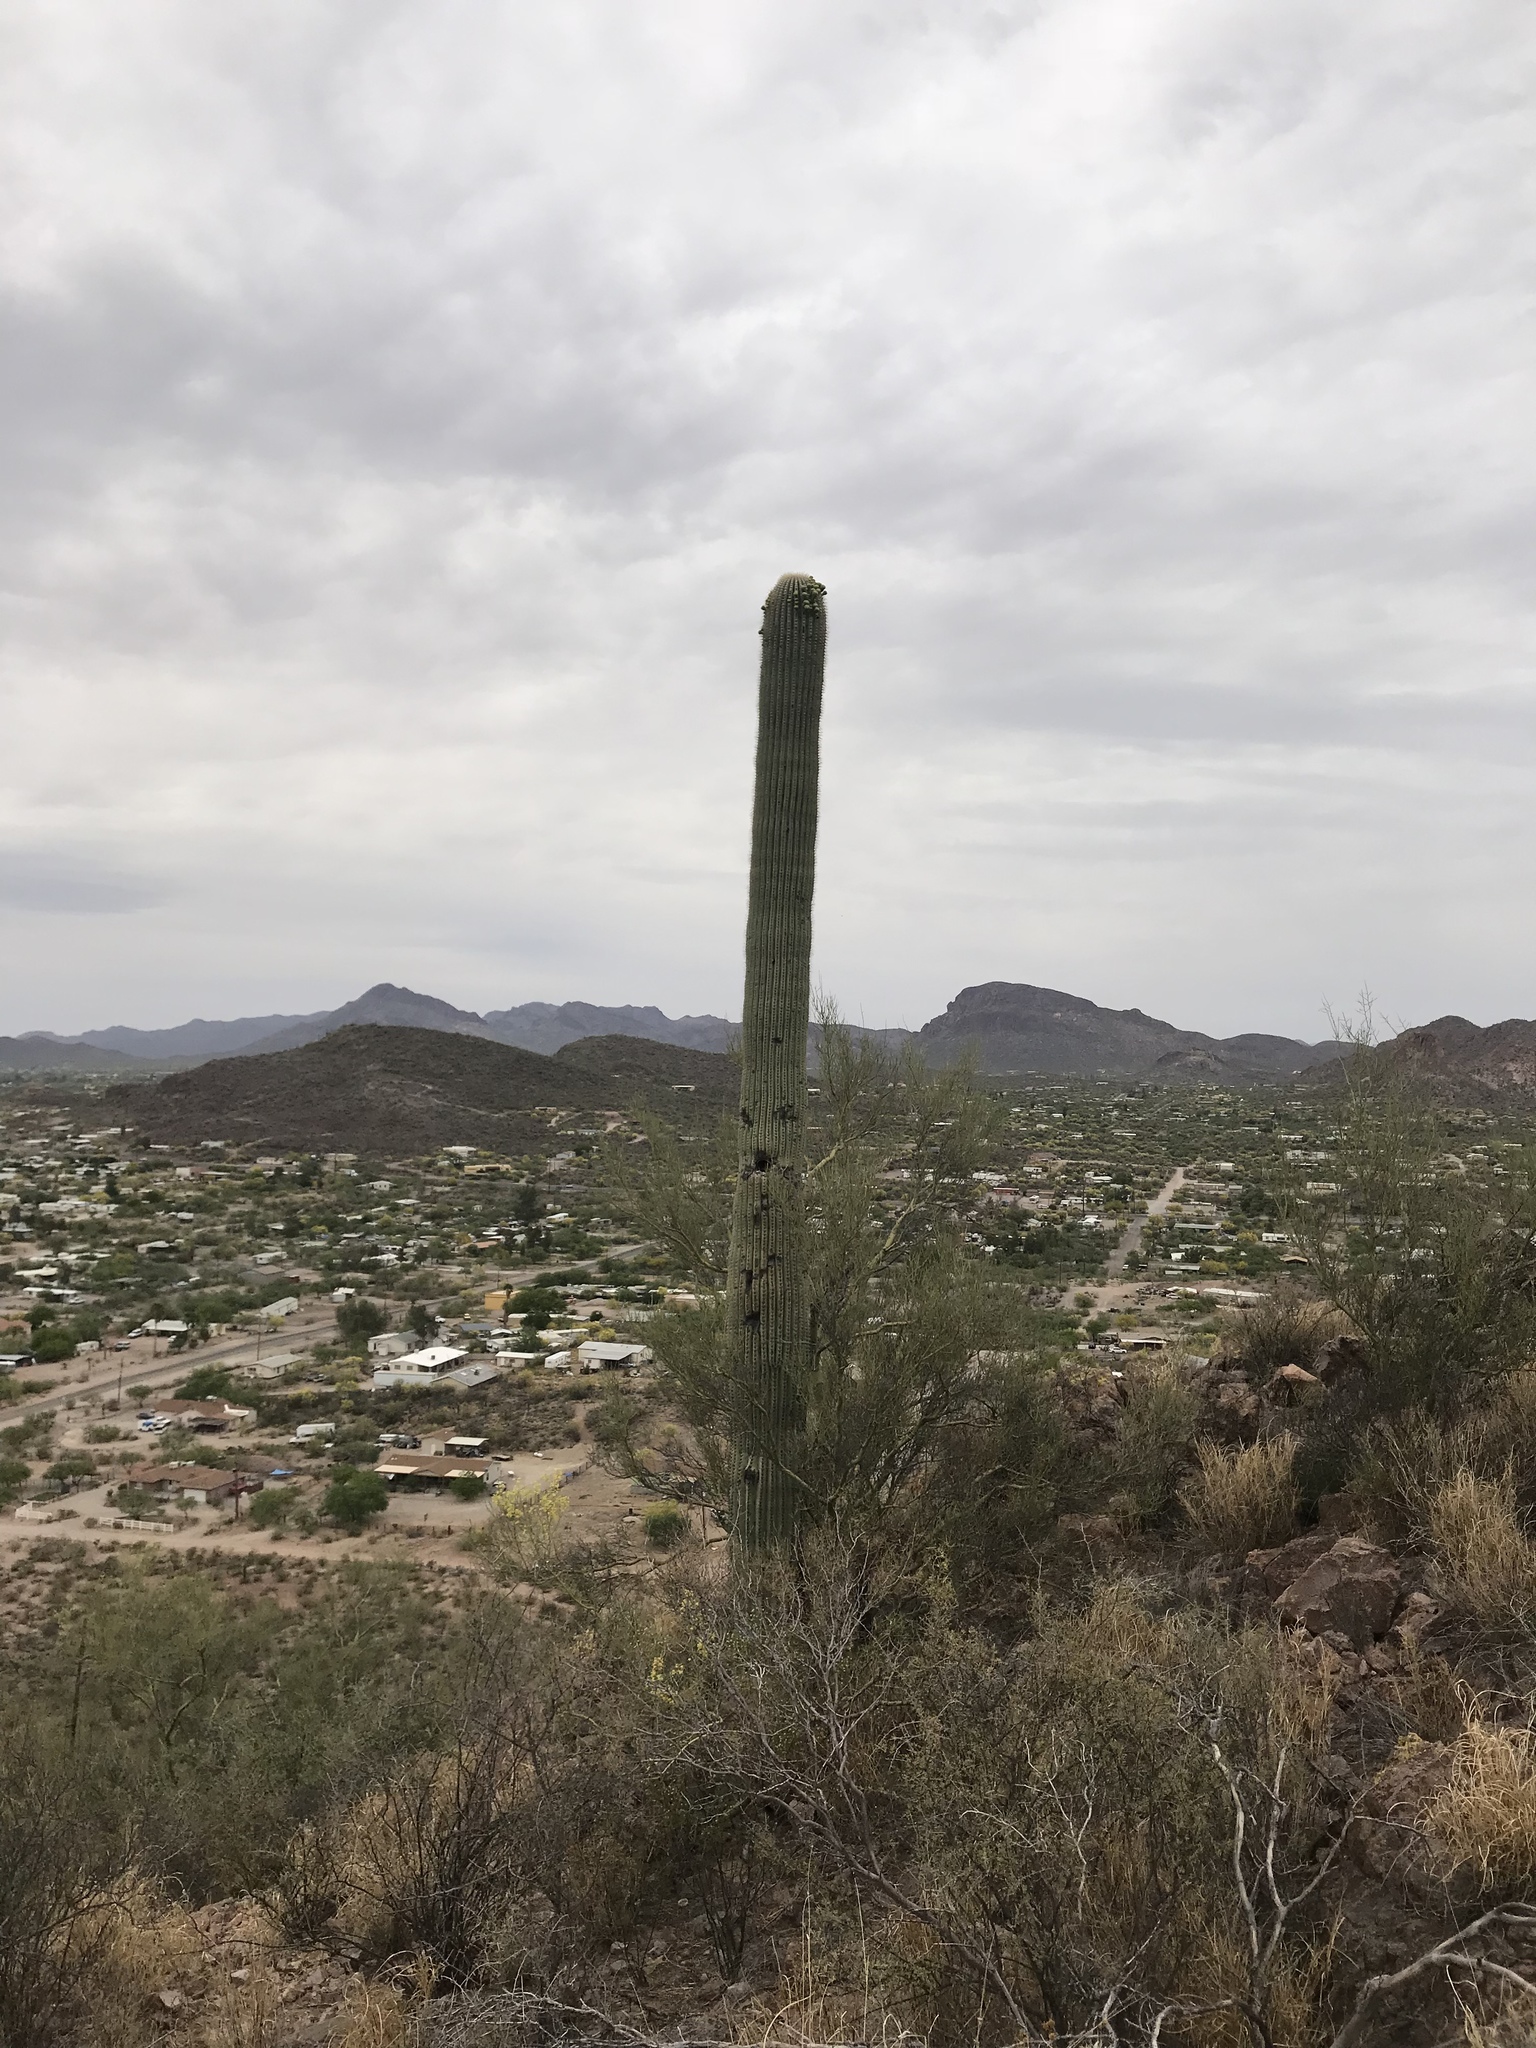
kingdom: Plantae
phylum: Tracheophyta
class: Magnoliopsida
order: Caryophyllales
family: Cactaceae
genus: Carnegiea
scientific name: Carnegiea gigantea
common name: Saguaro
